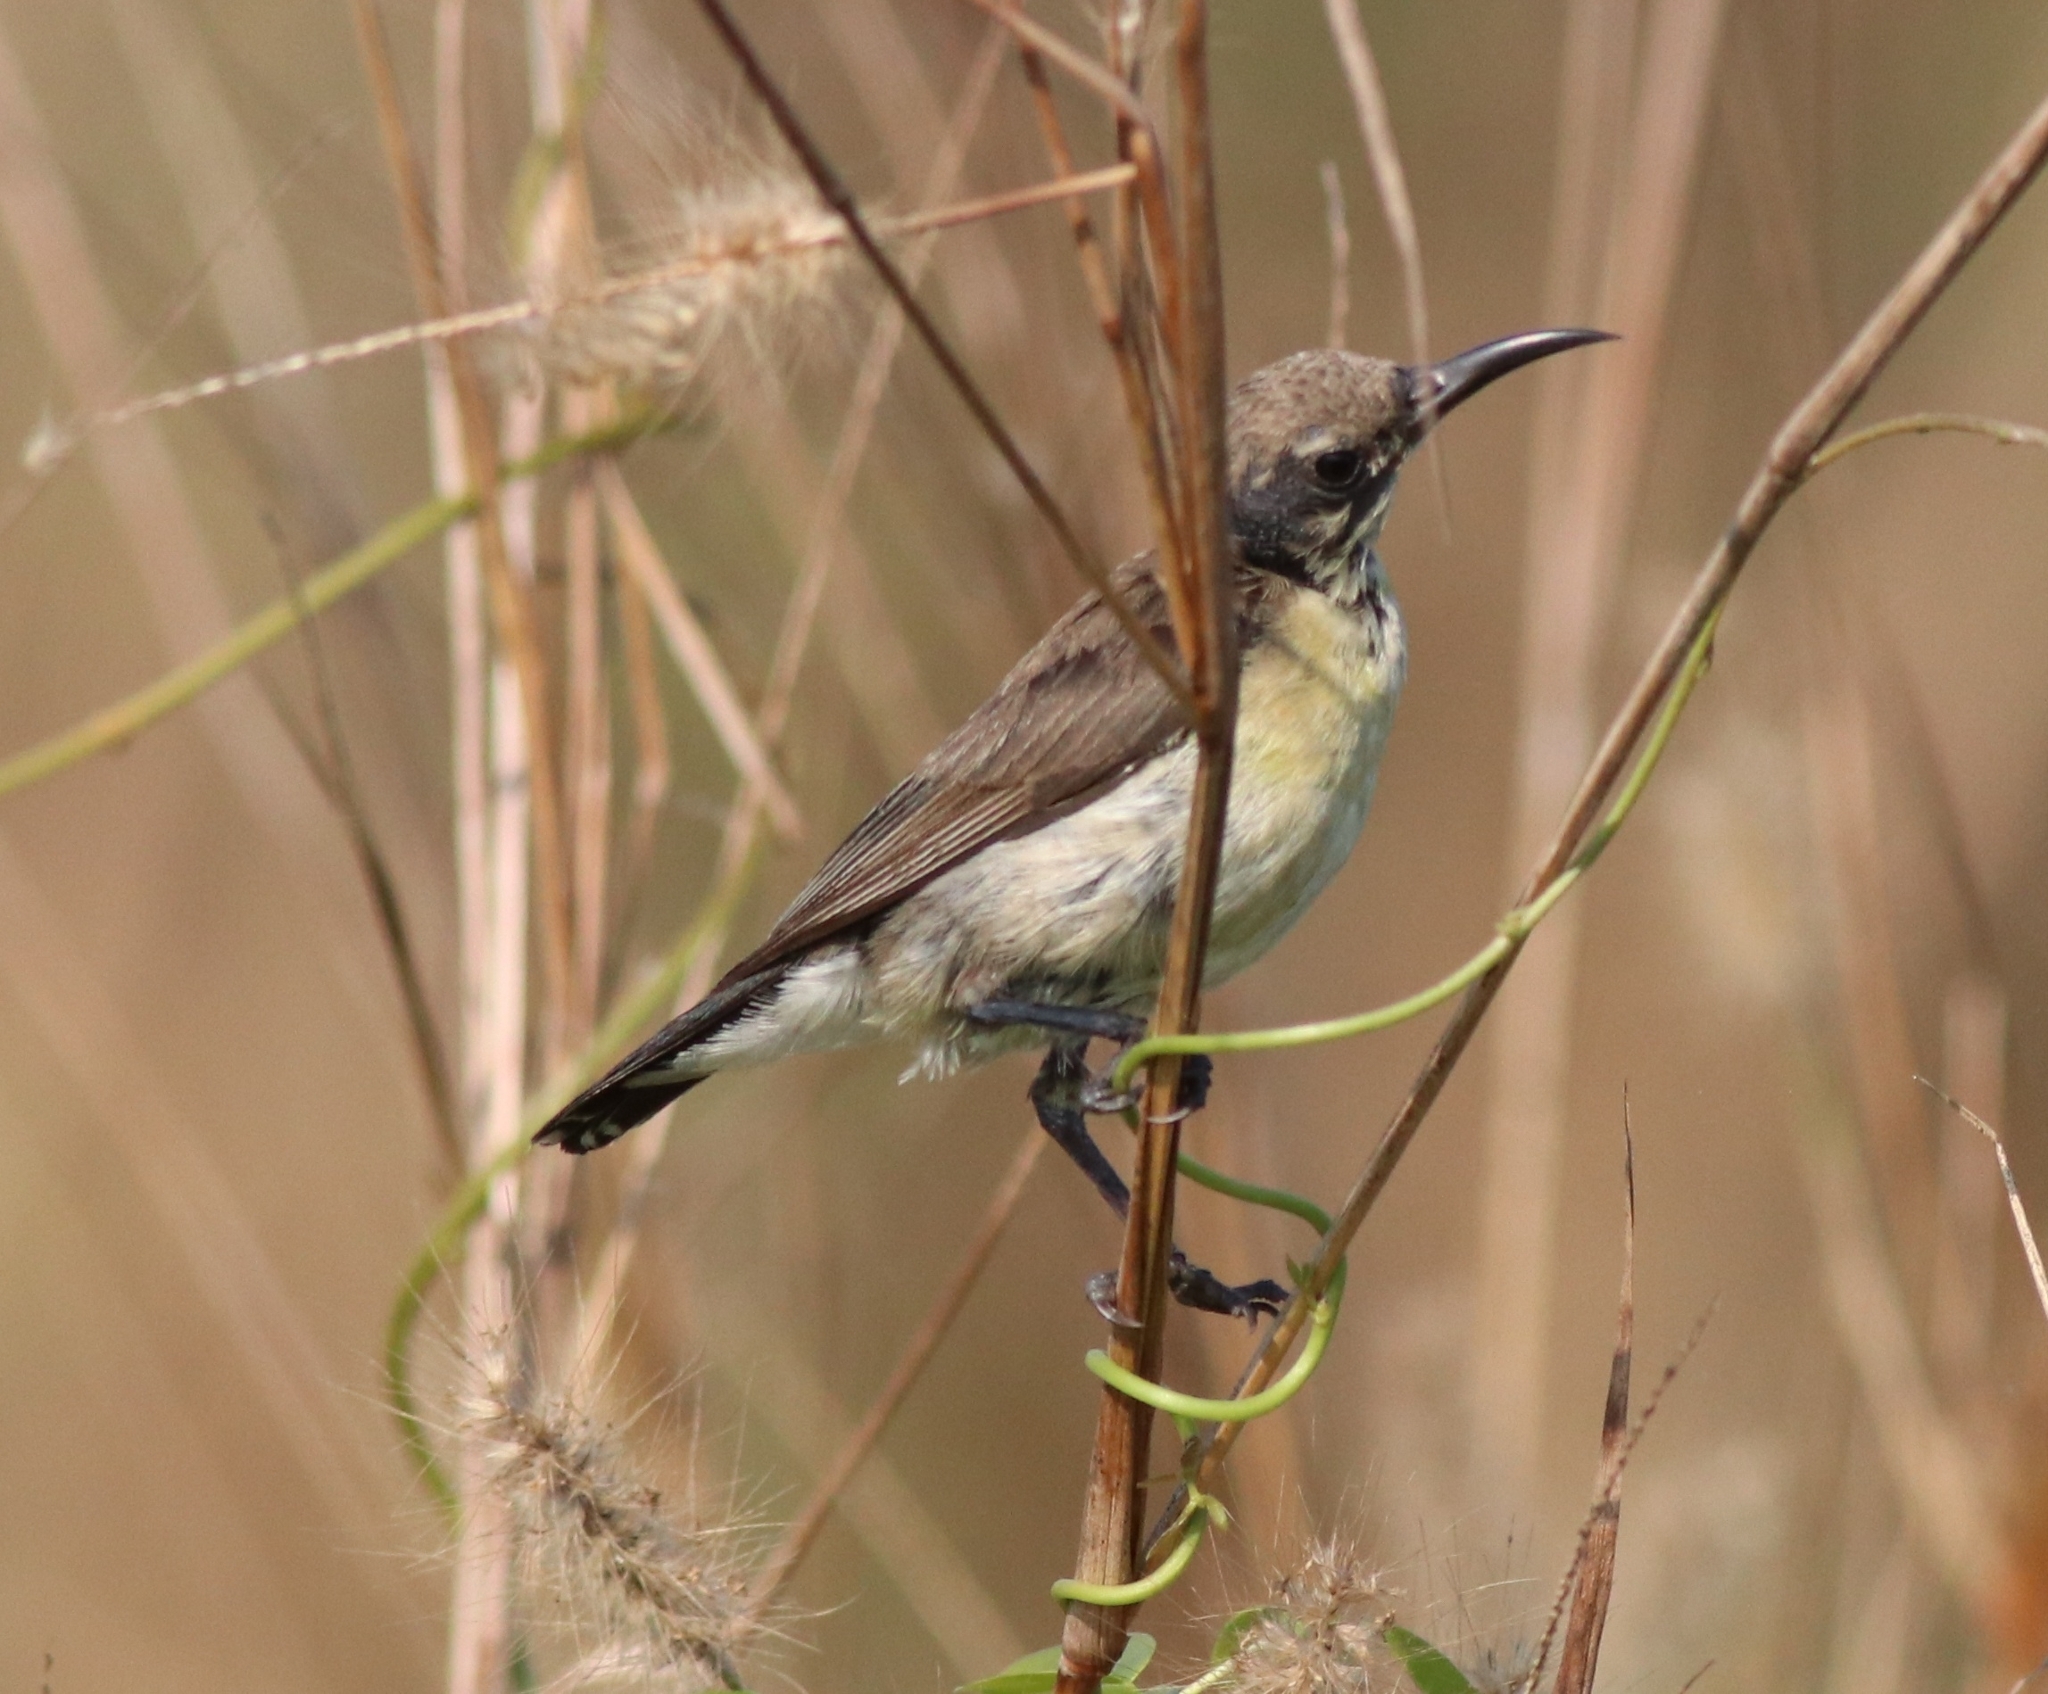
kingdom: Animalia
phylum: Chordata
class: Aves
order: Passeriformes
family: Nectariniidae
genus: Cinnyris
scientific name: Cinnyris asiaticus
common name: Purple sunbird
